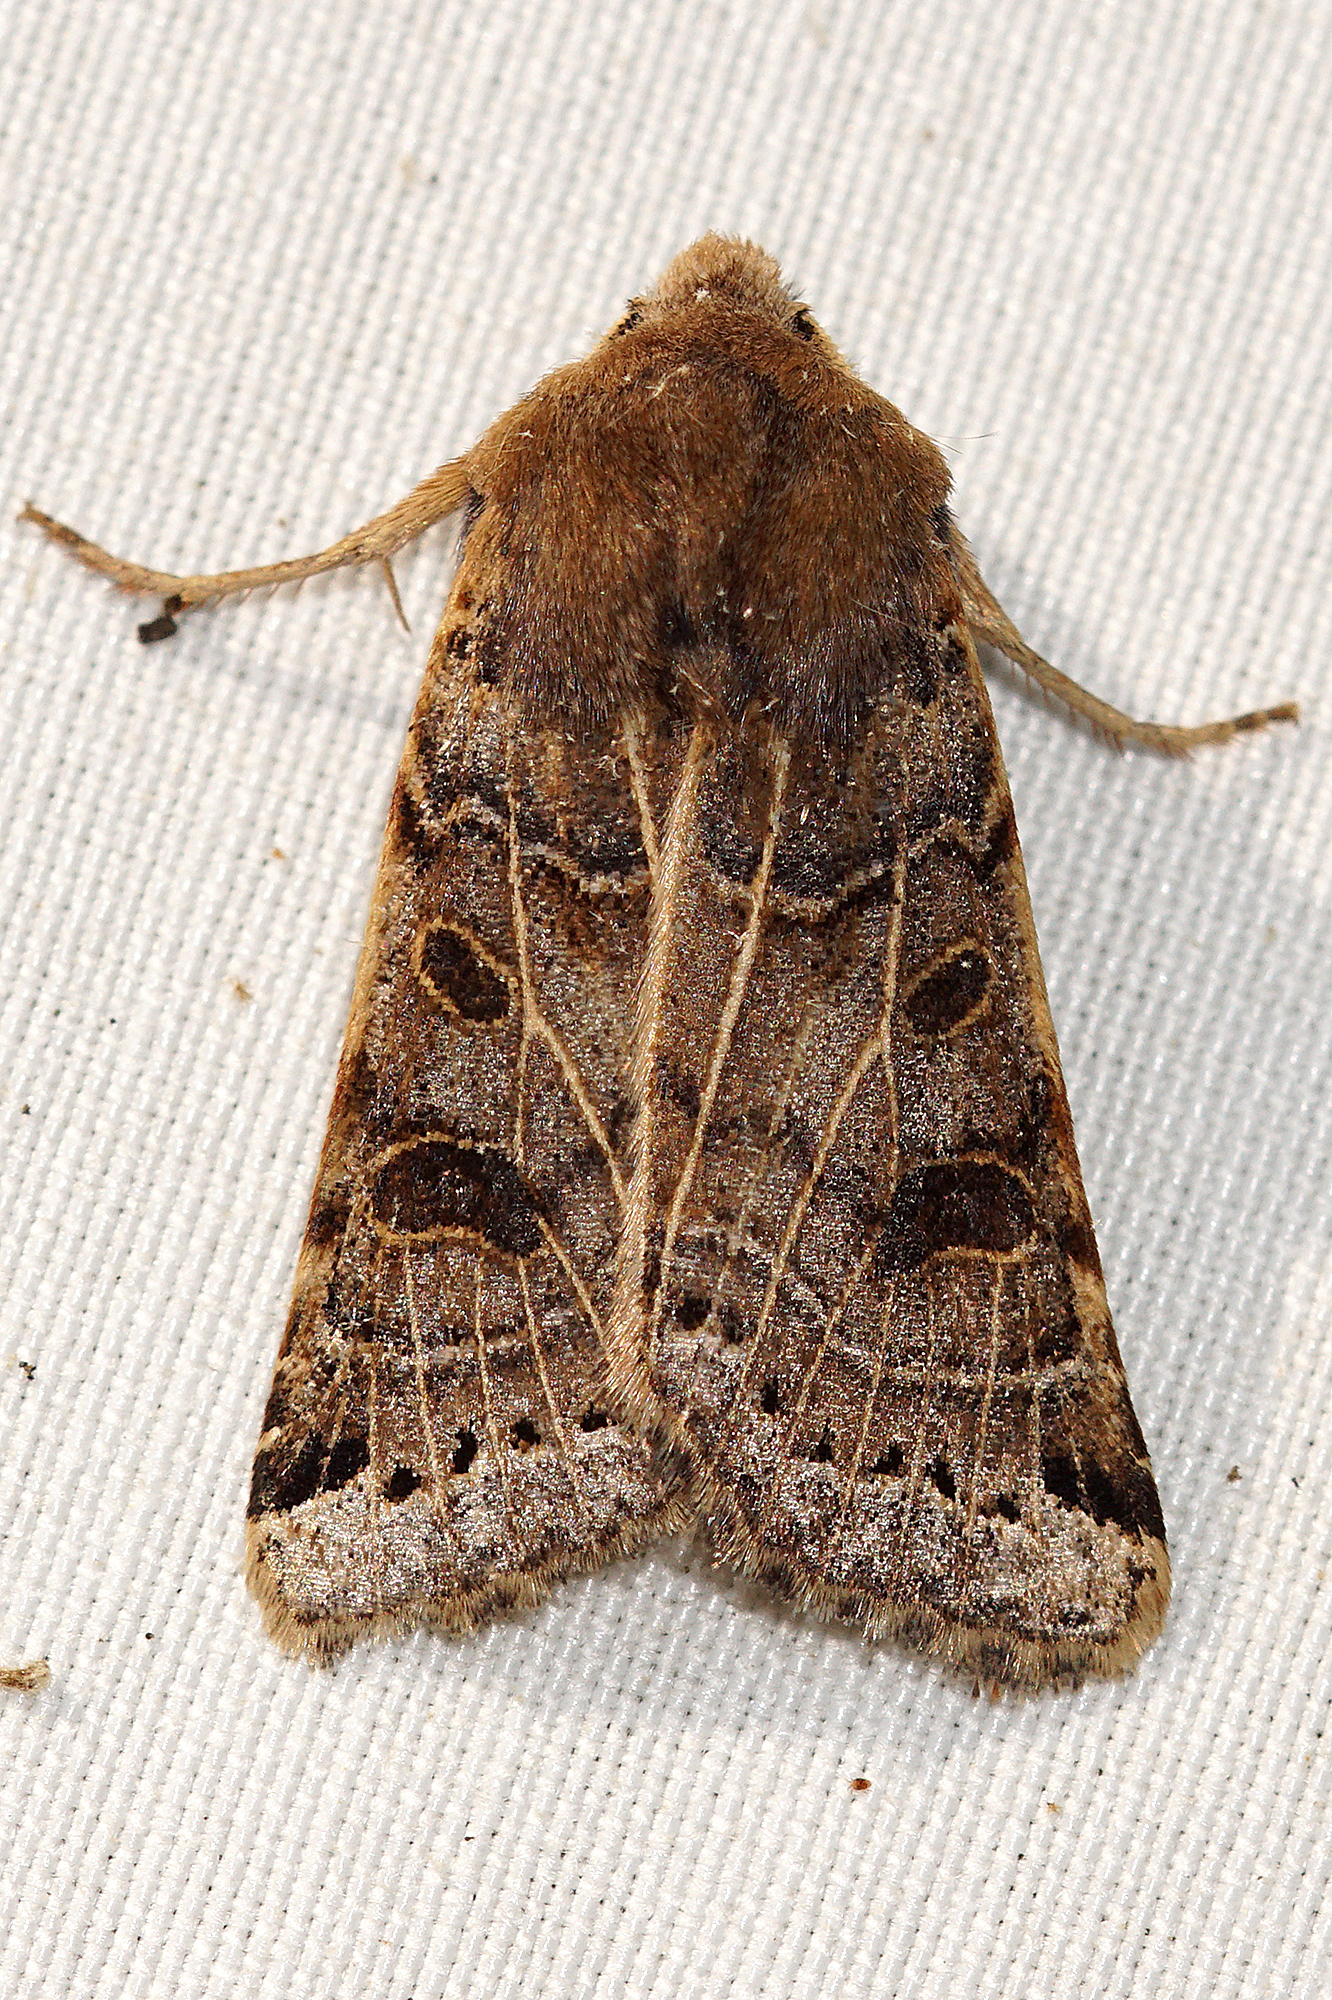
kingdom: Animalia
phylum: Arthropoda
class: Insecta
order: Lepidoptera
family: Noctuidae
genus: Agrochola
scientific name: Agrochola lunosa
